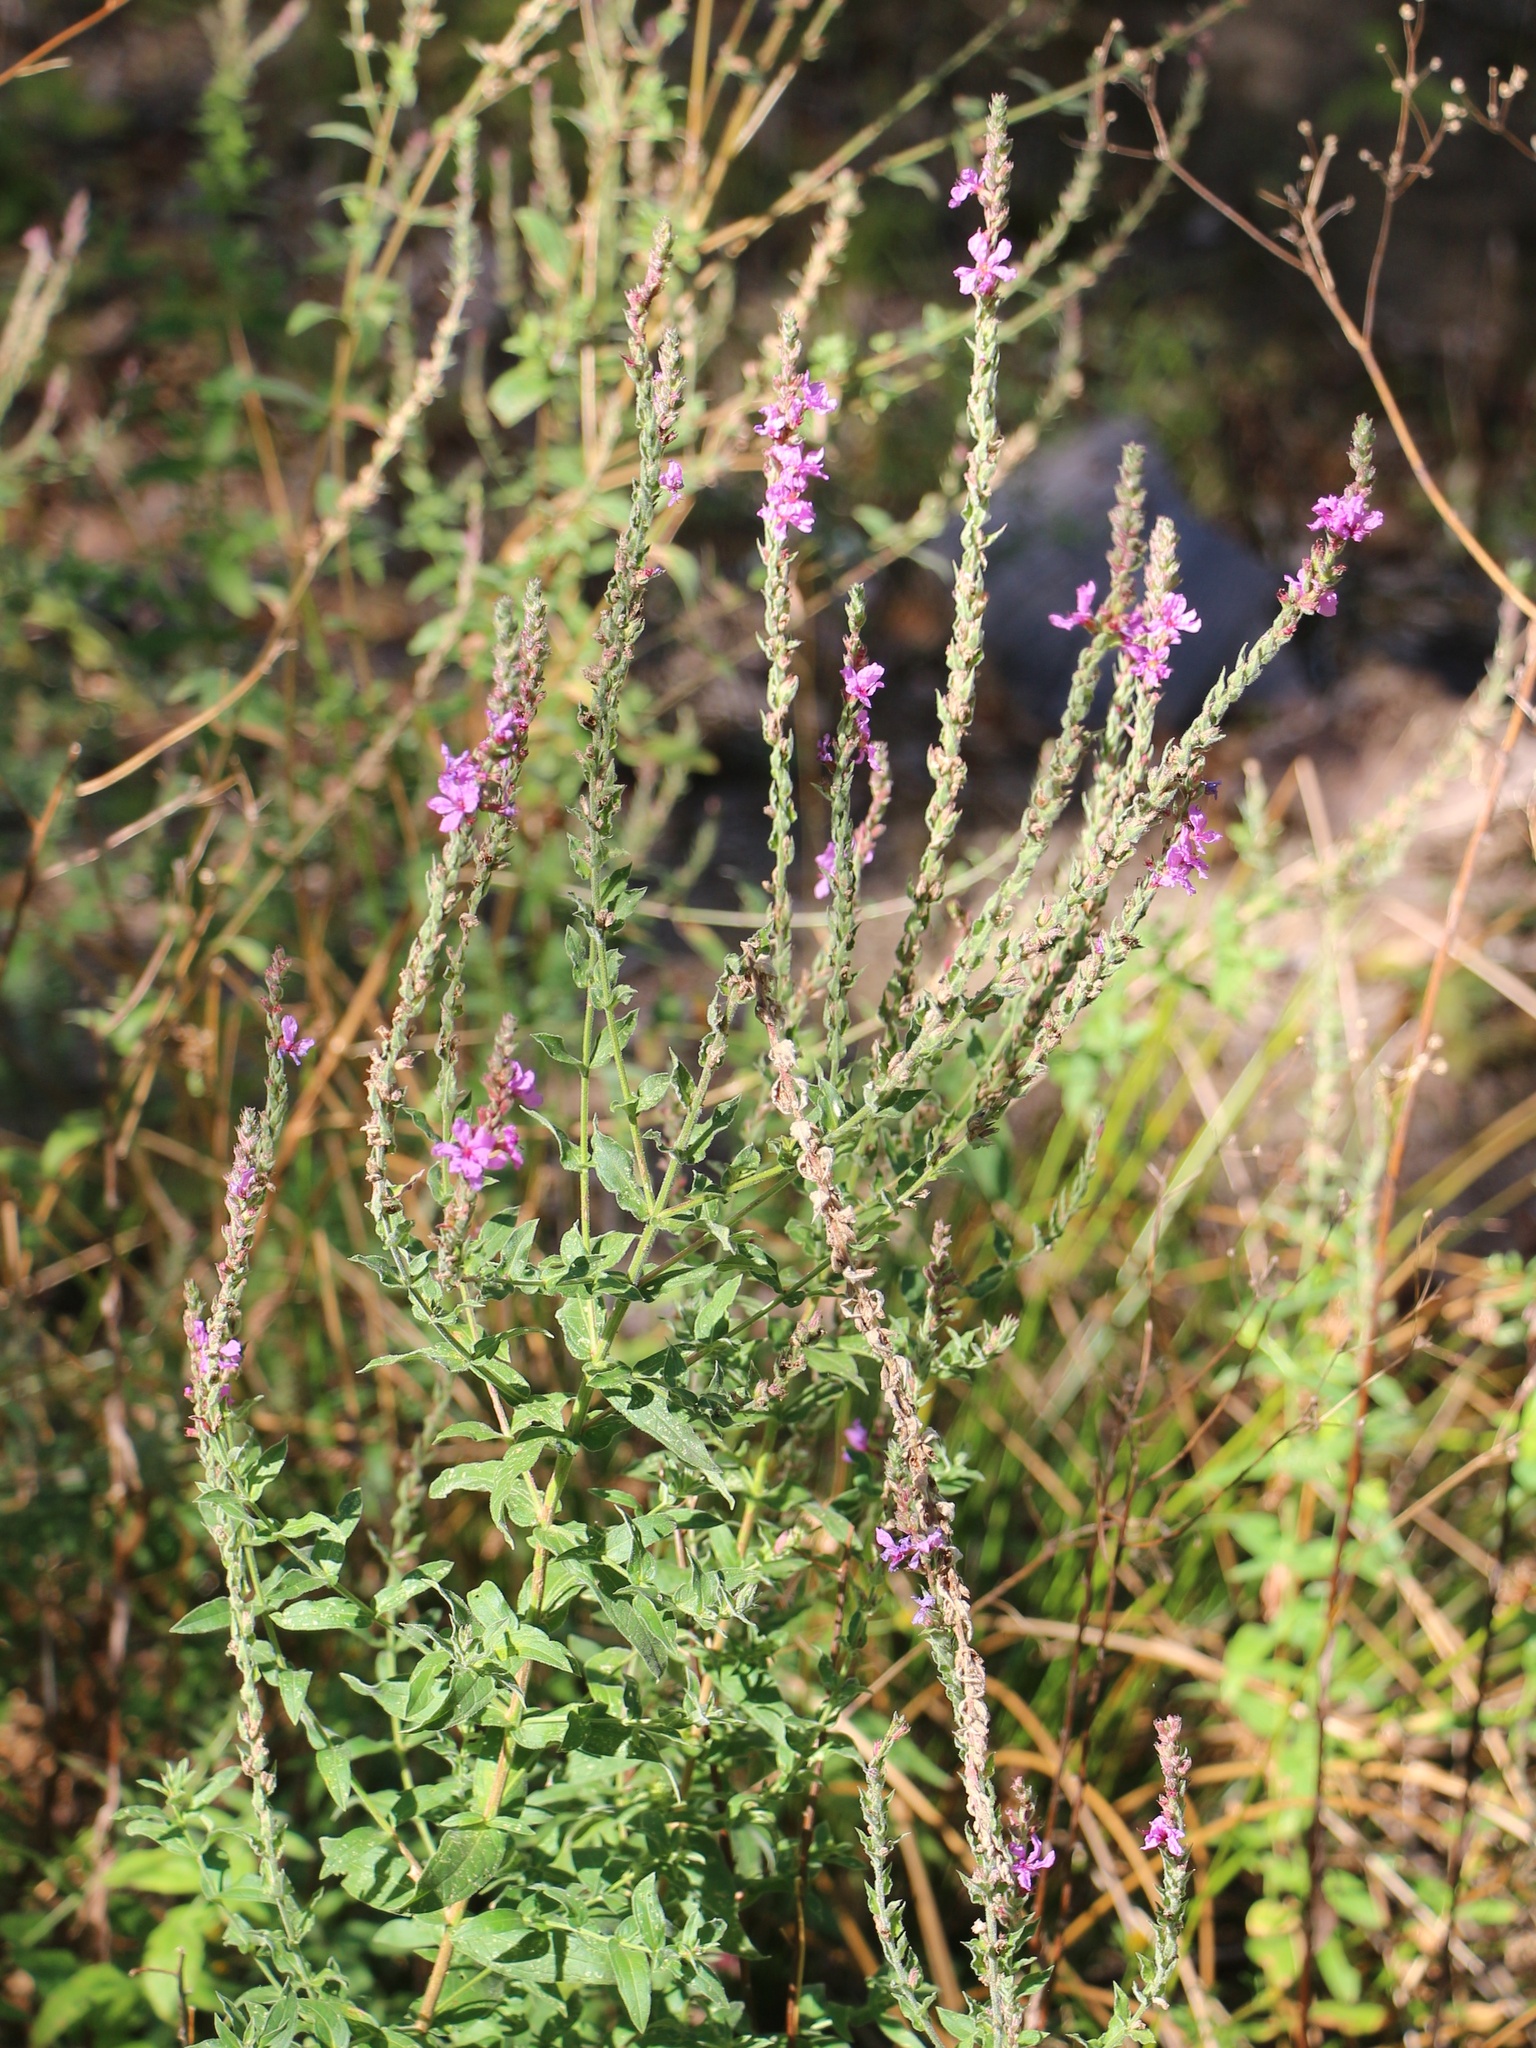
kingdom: Plantae
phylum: Tracheophyta
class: Magnoliopsida
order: Myrtales
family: Lythraceae
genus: Lythrum
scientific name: Lythrum salicaria
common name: Purple loosestrife
